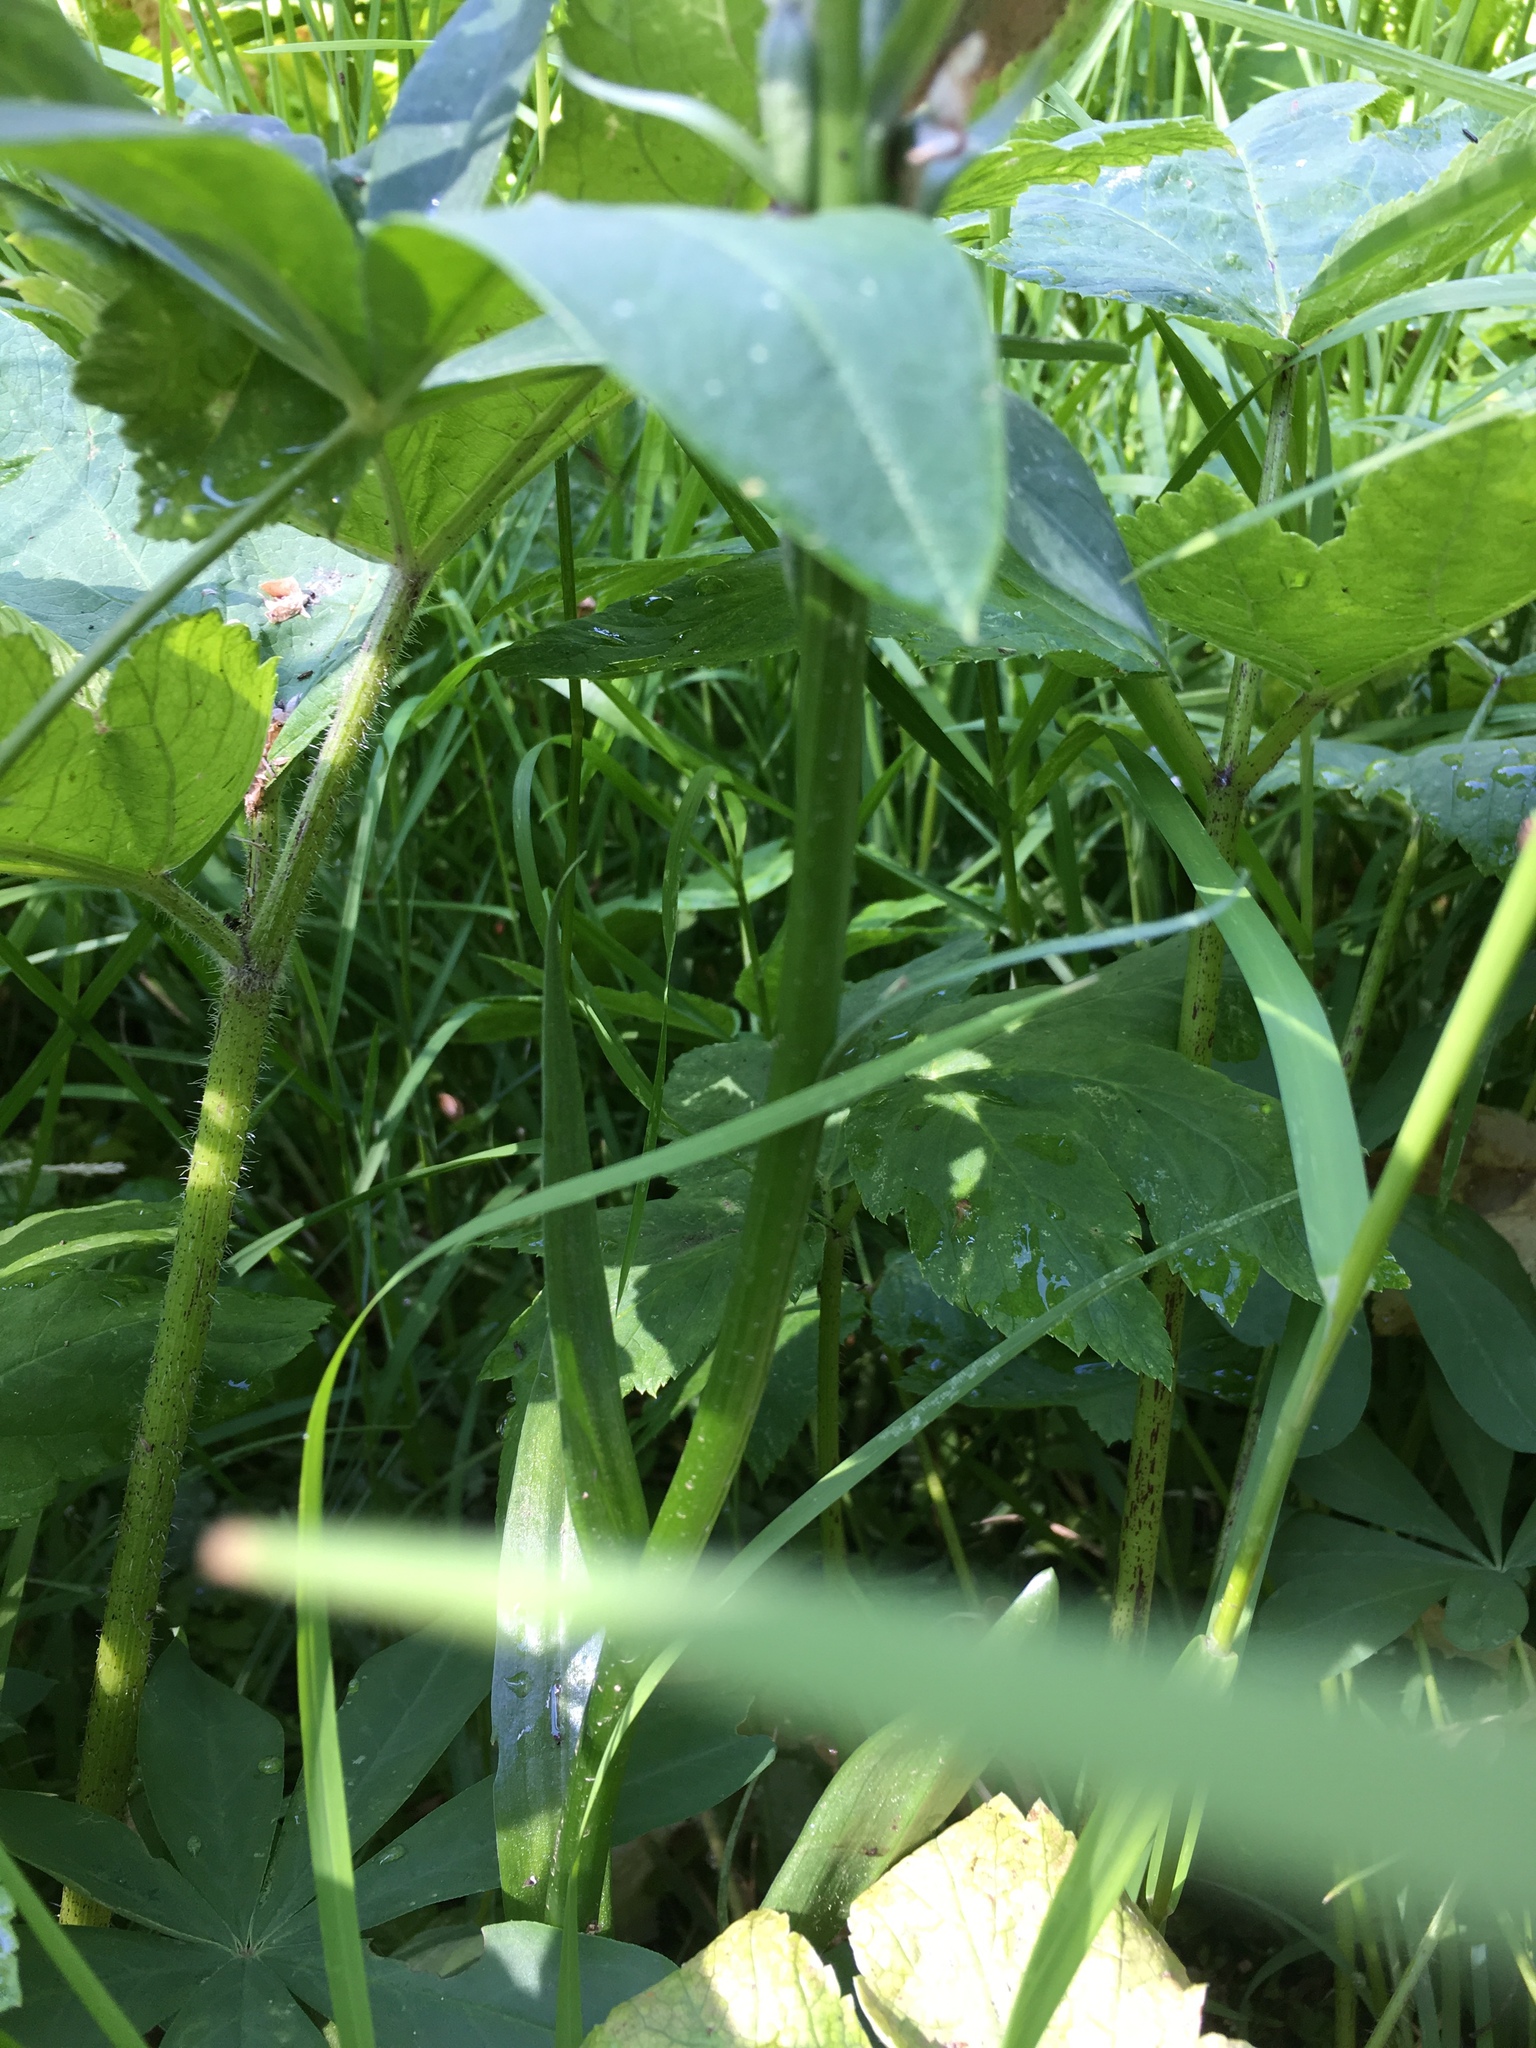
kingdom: Plantae
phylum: Tracheophyta
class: Liliopsida
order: Asparagales
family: Orchidaceae
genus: Platanthera
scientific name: Platanthera dilatata
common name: Bog candles
